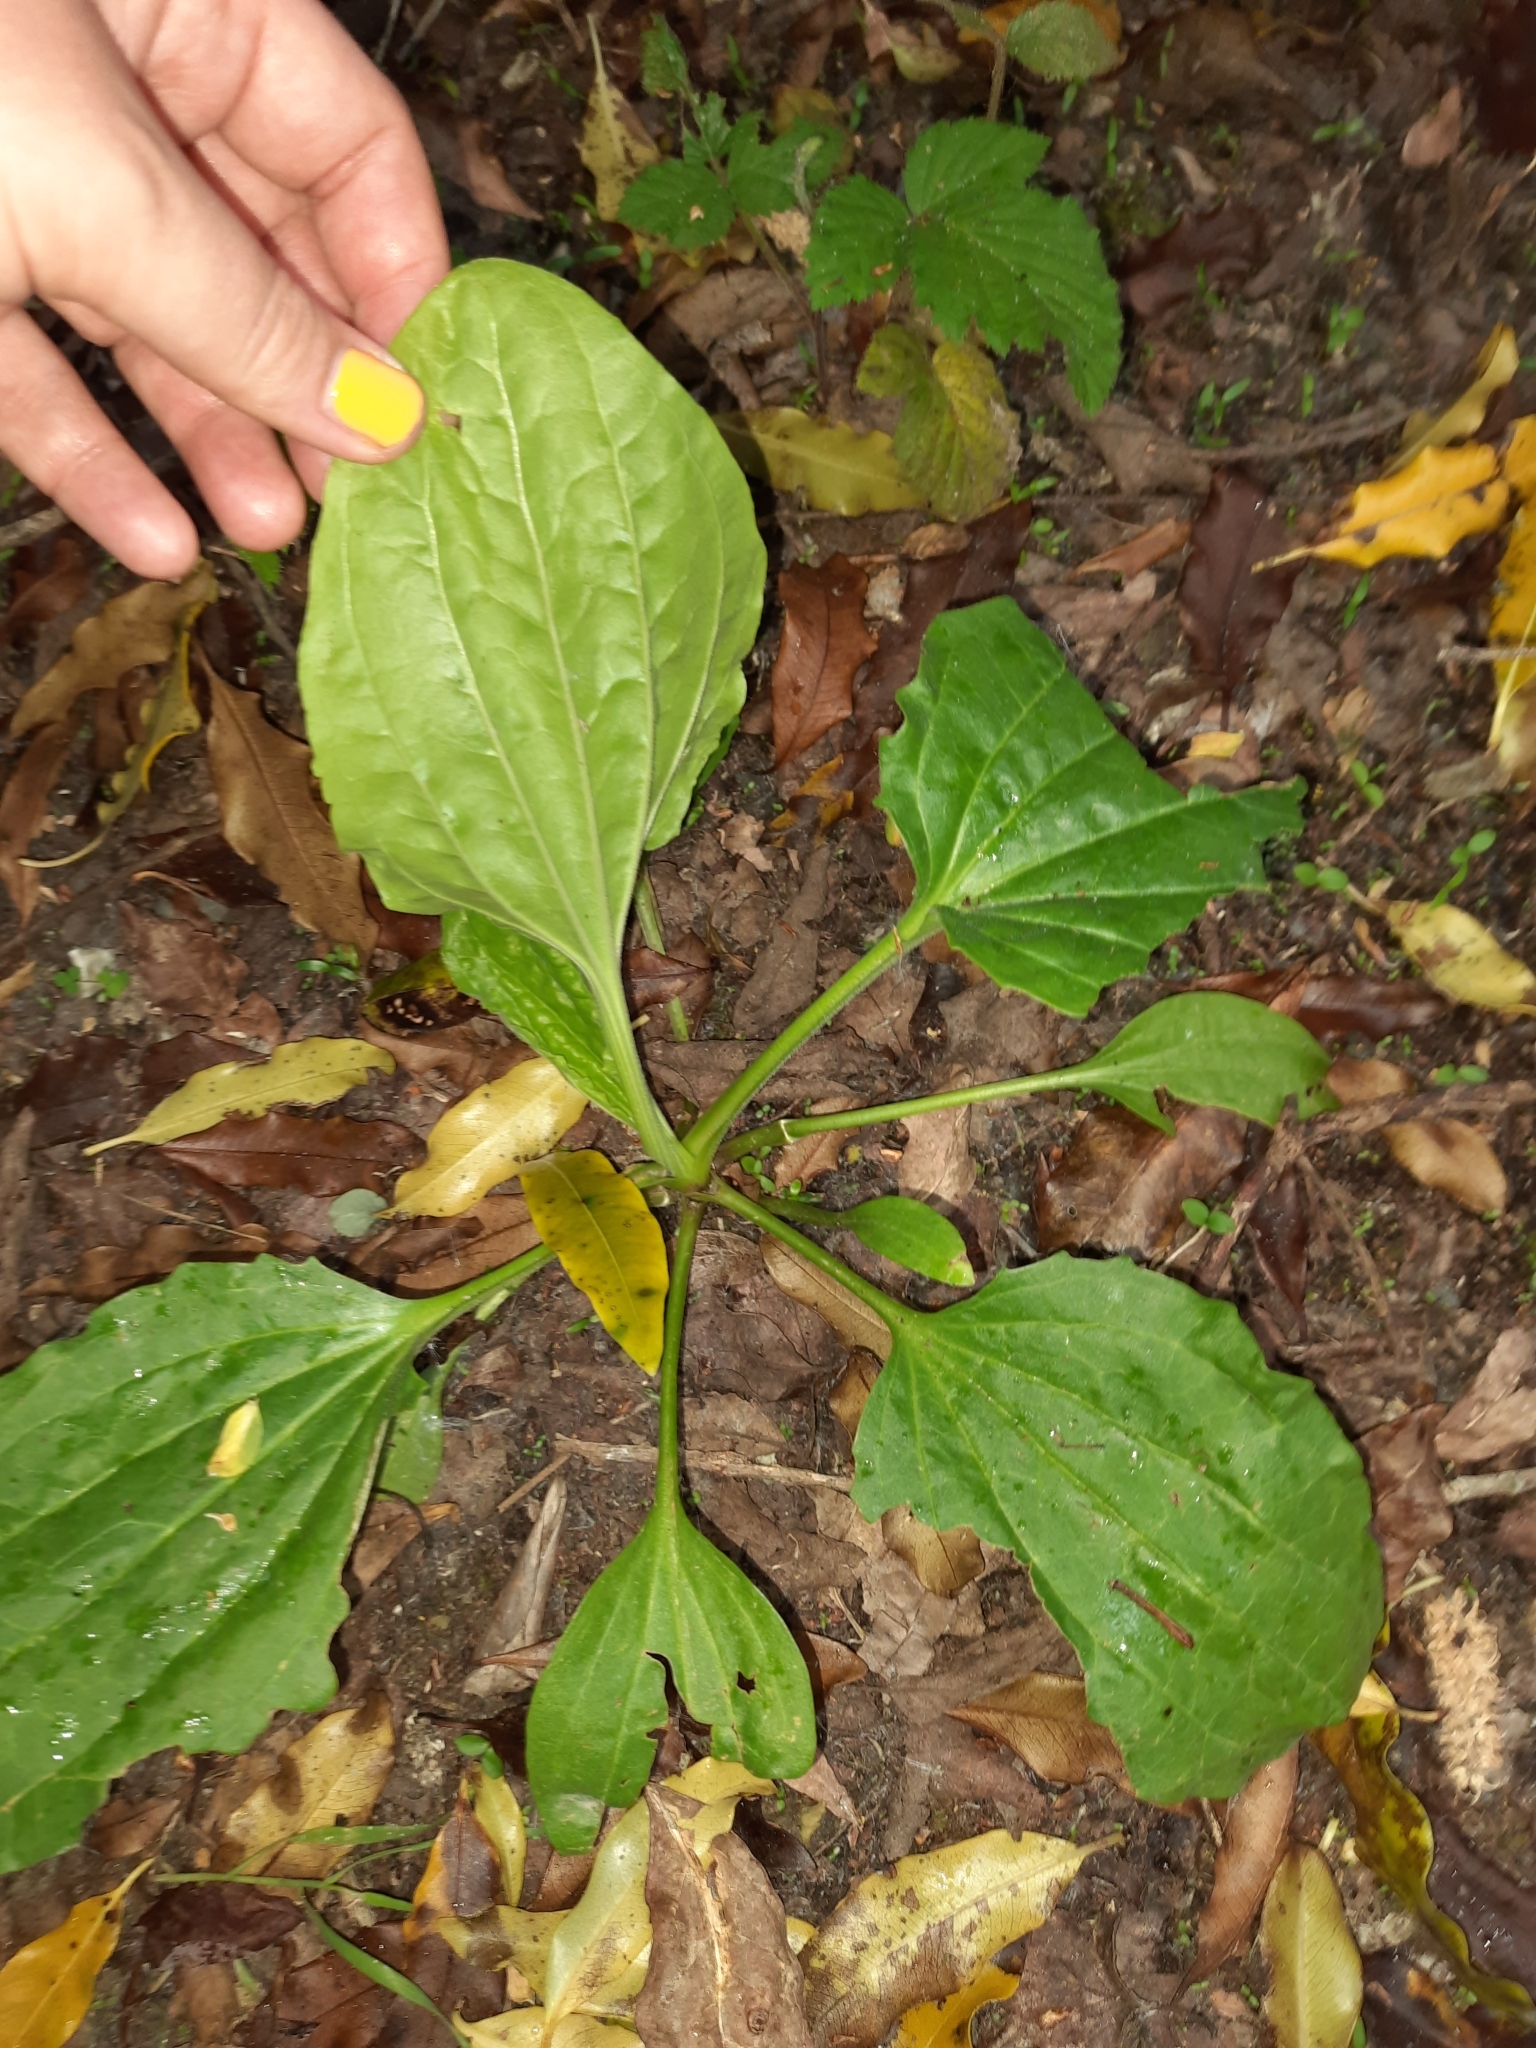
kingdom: Plantae
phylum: Tracheophyta
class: Magnoliopsida
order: Lamiales
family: Plantaginaceae
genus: Plantago
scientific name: Plantago major
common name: Common plantain
